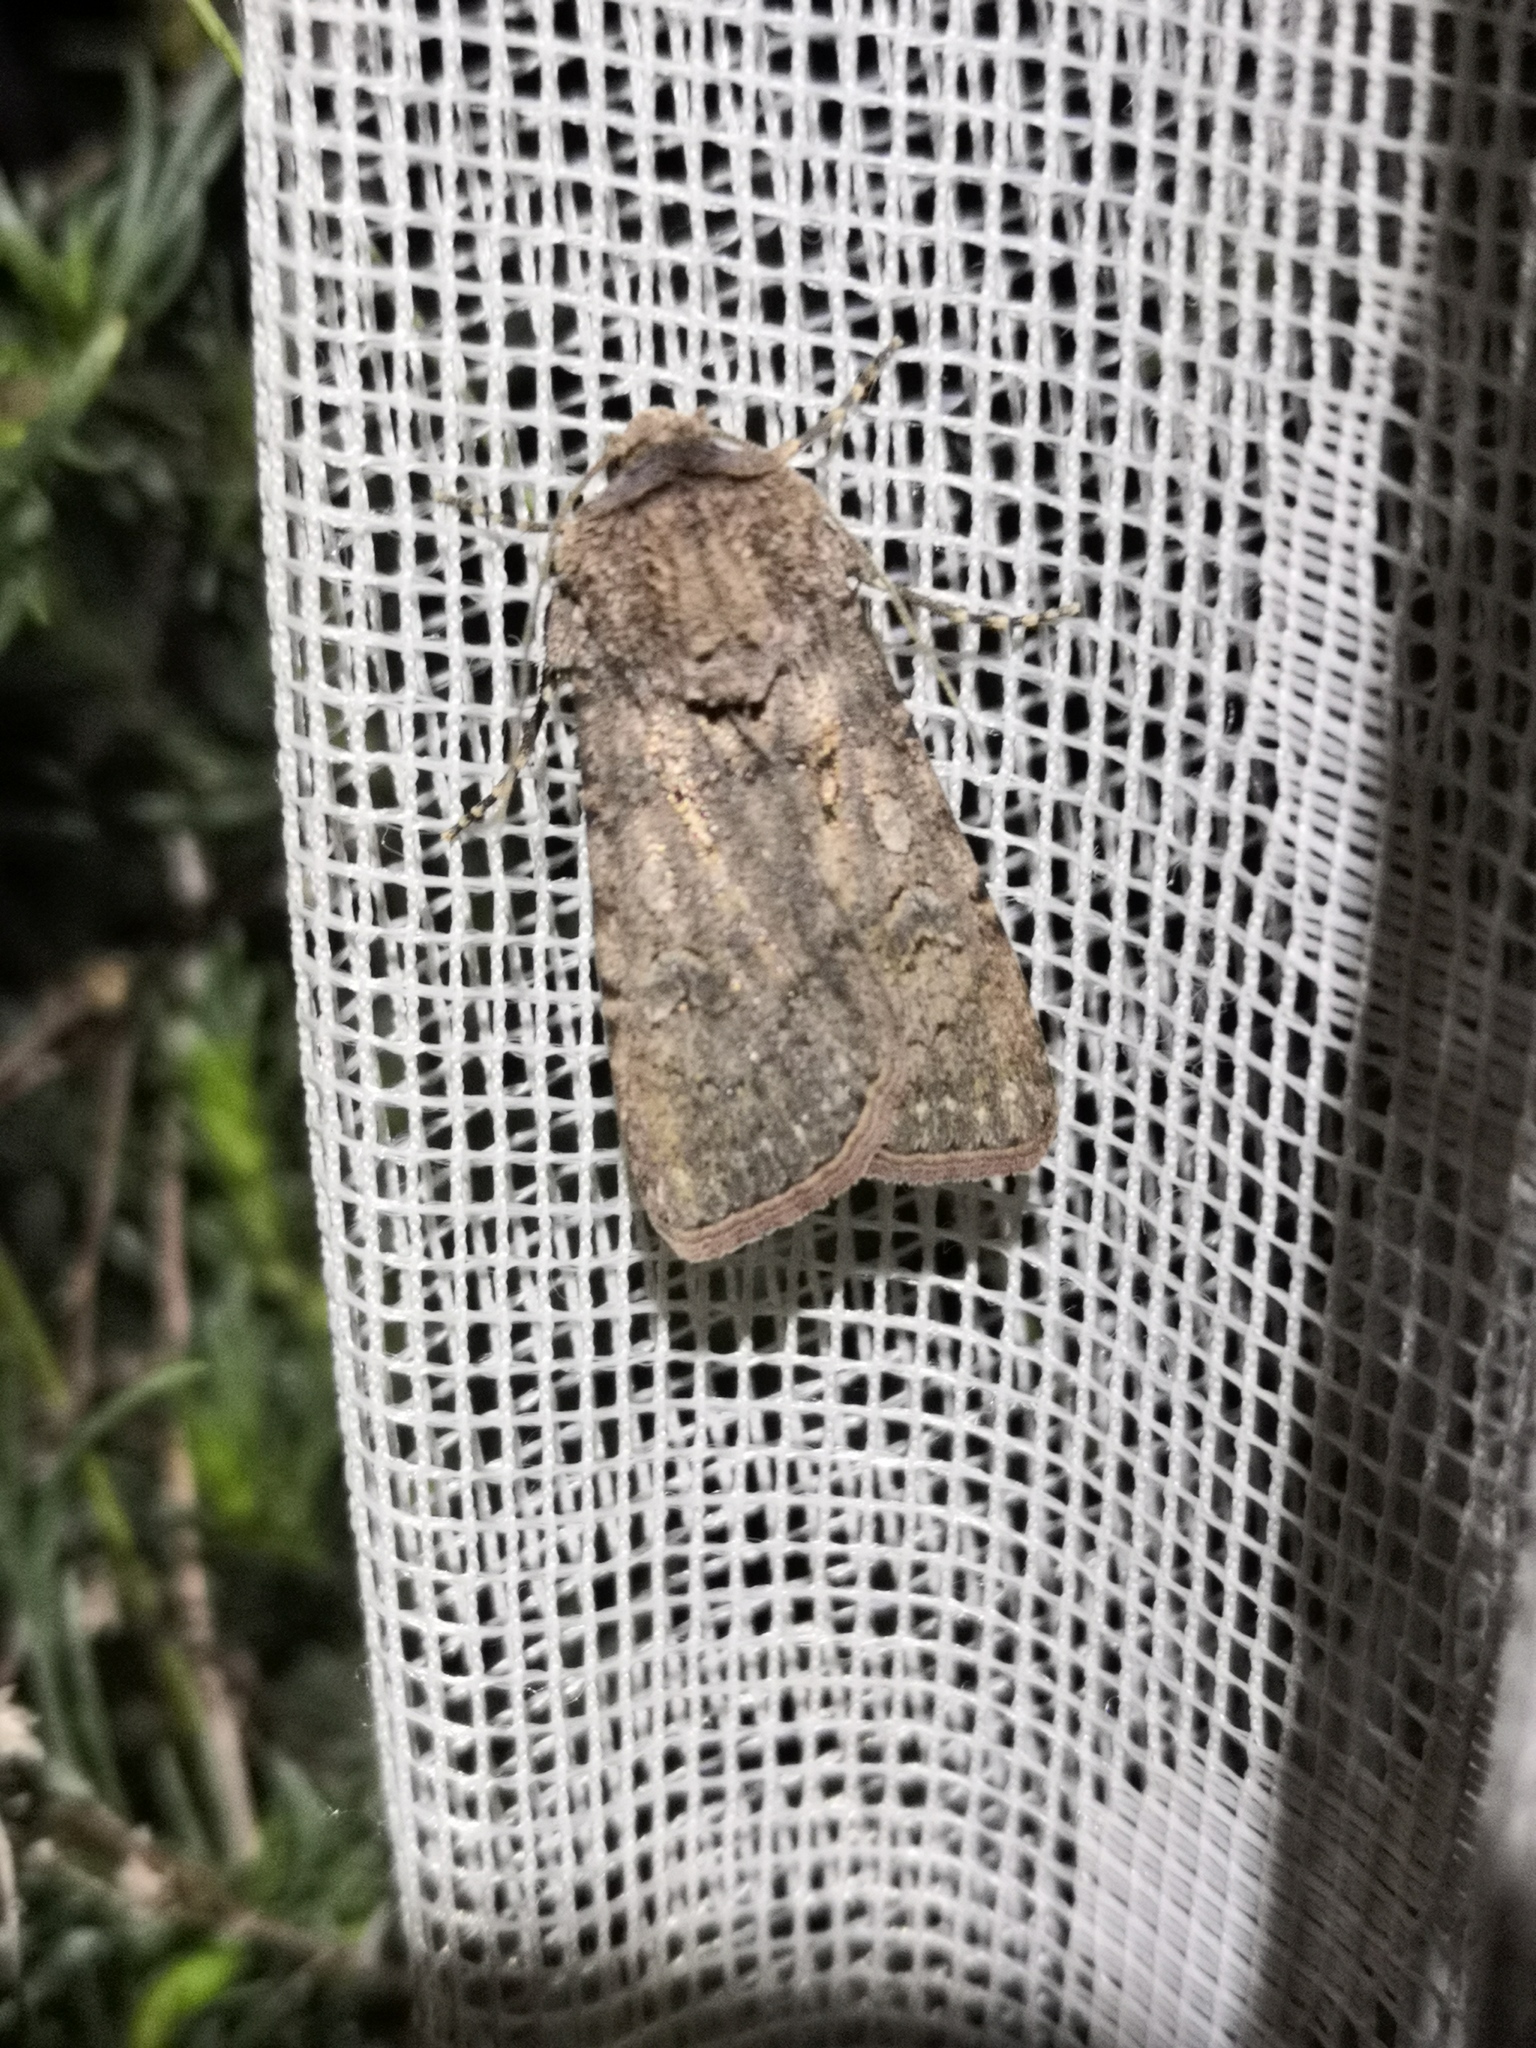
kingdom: Animalia
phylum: Arthropoda
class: Insecta
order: Lepidoptera
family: Noctuidae
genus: Agrotis
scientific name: Agrotis segetum
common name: Turnip moth
